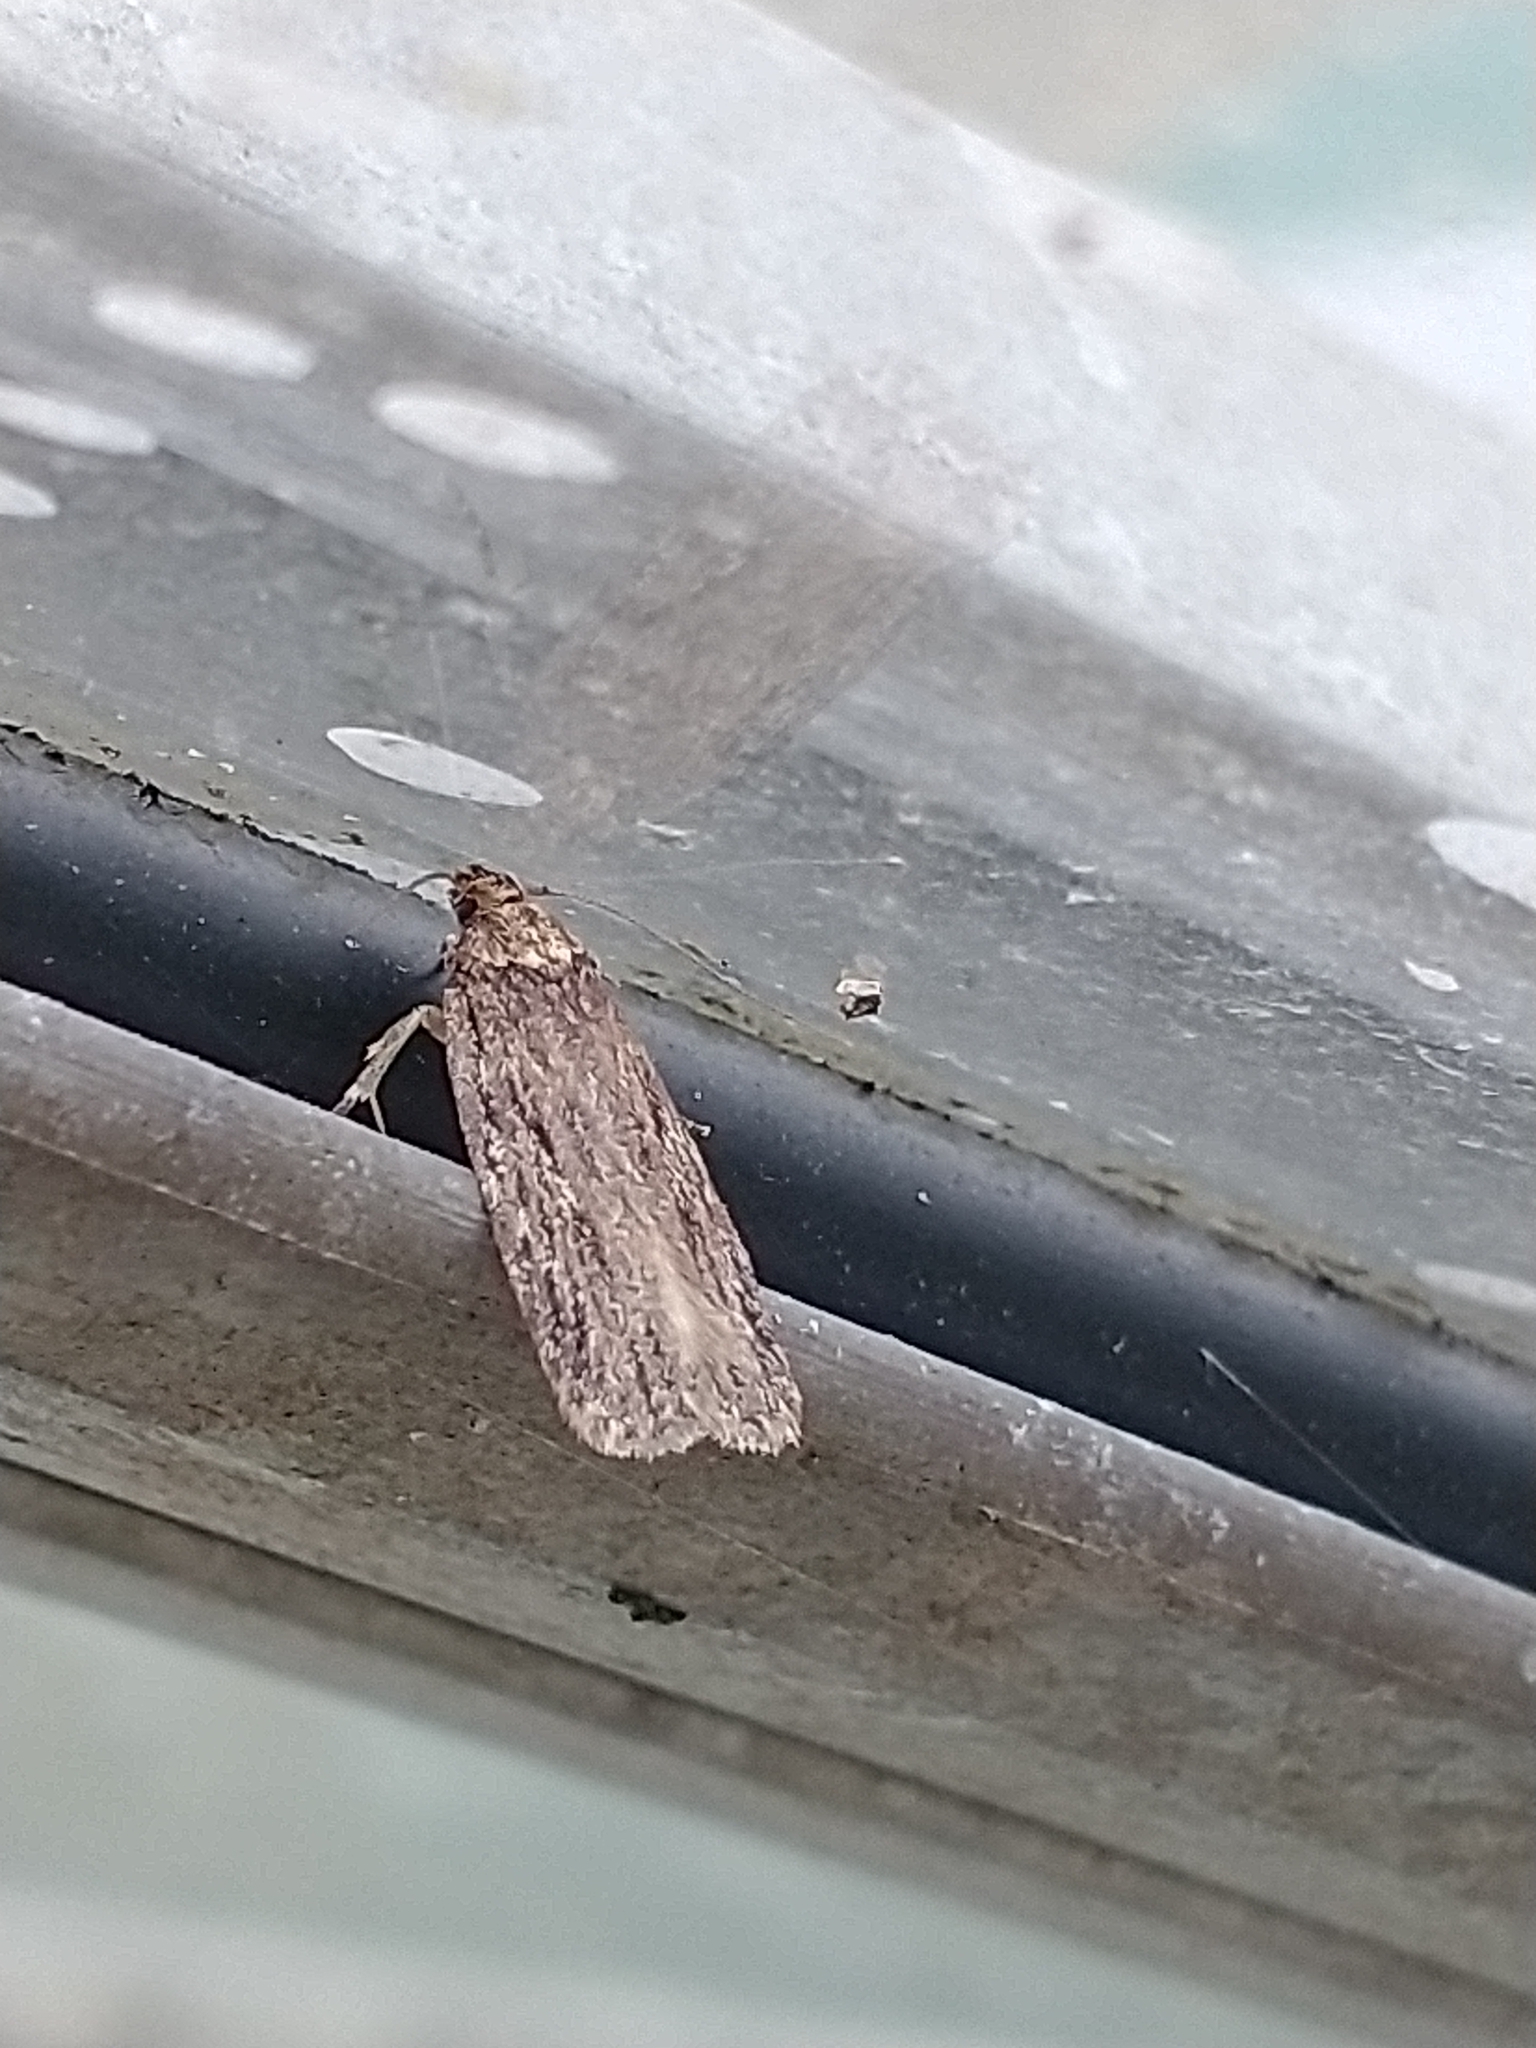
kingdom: Animalia
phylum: Arthropoda
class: Insecta
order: Lepidoptera
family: Depressariidae
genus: Depressaria
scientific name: Depressaria radiella
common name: Parsnip moth
